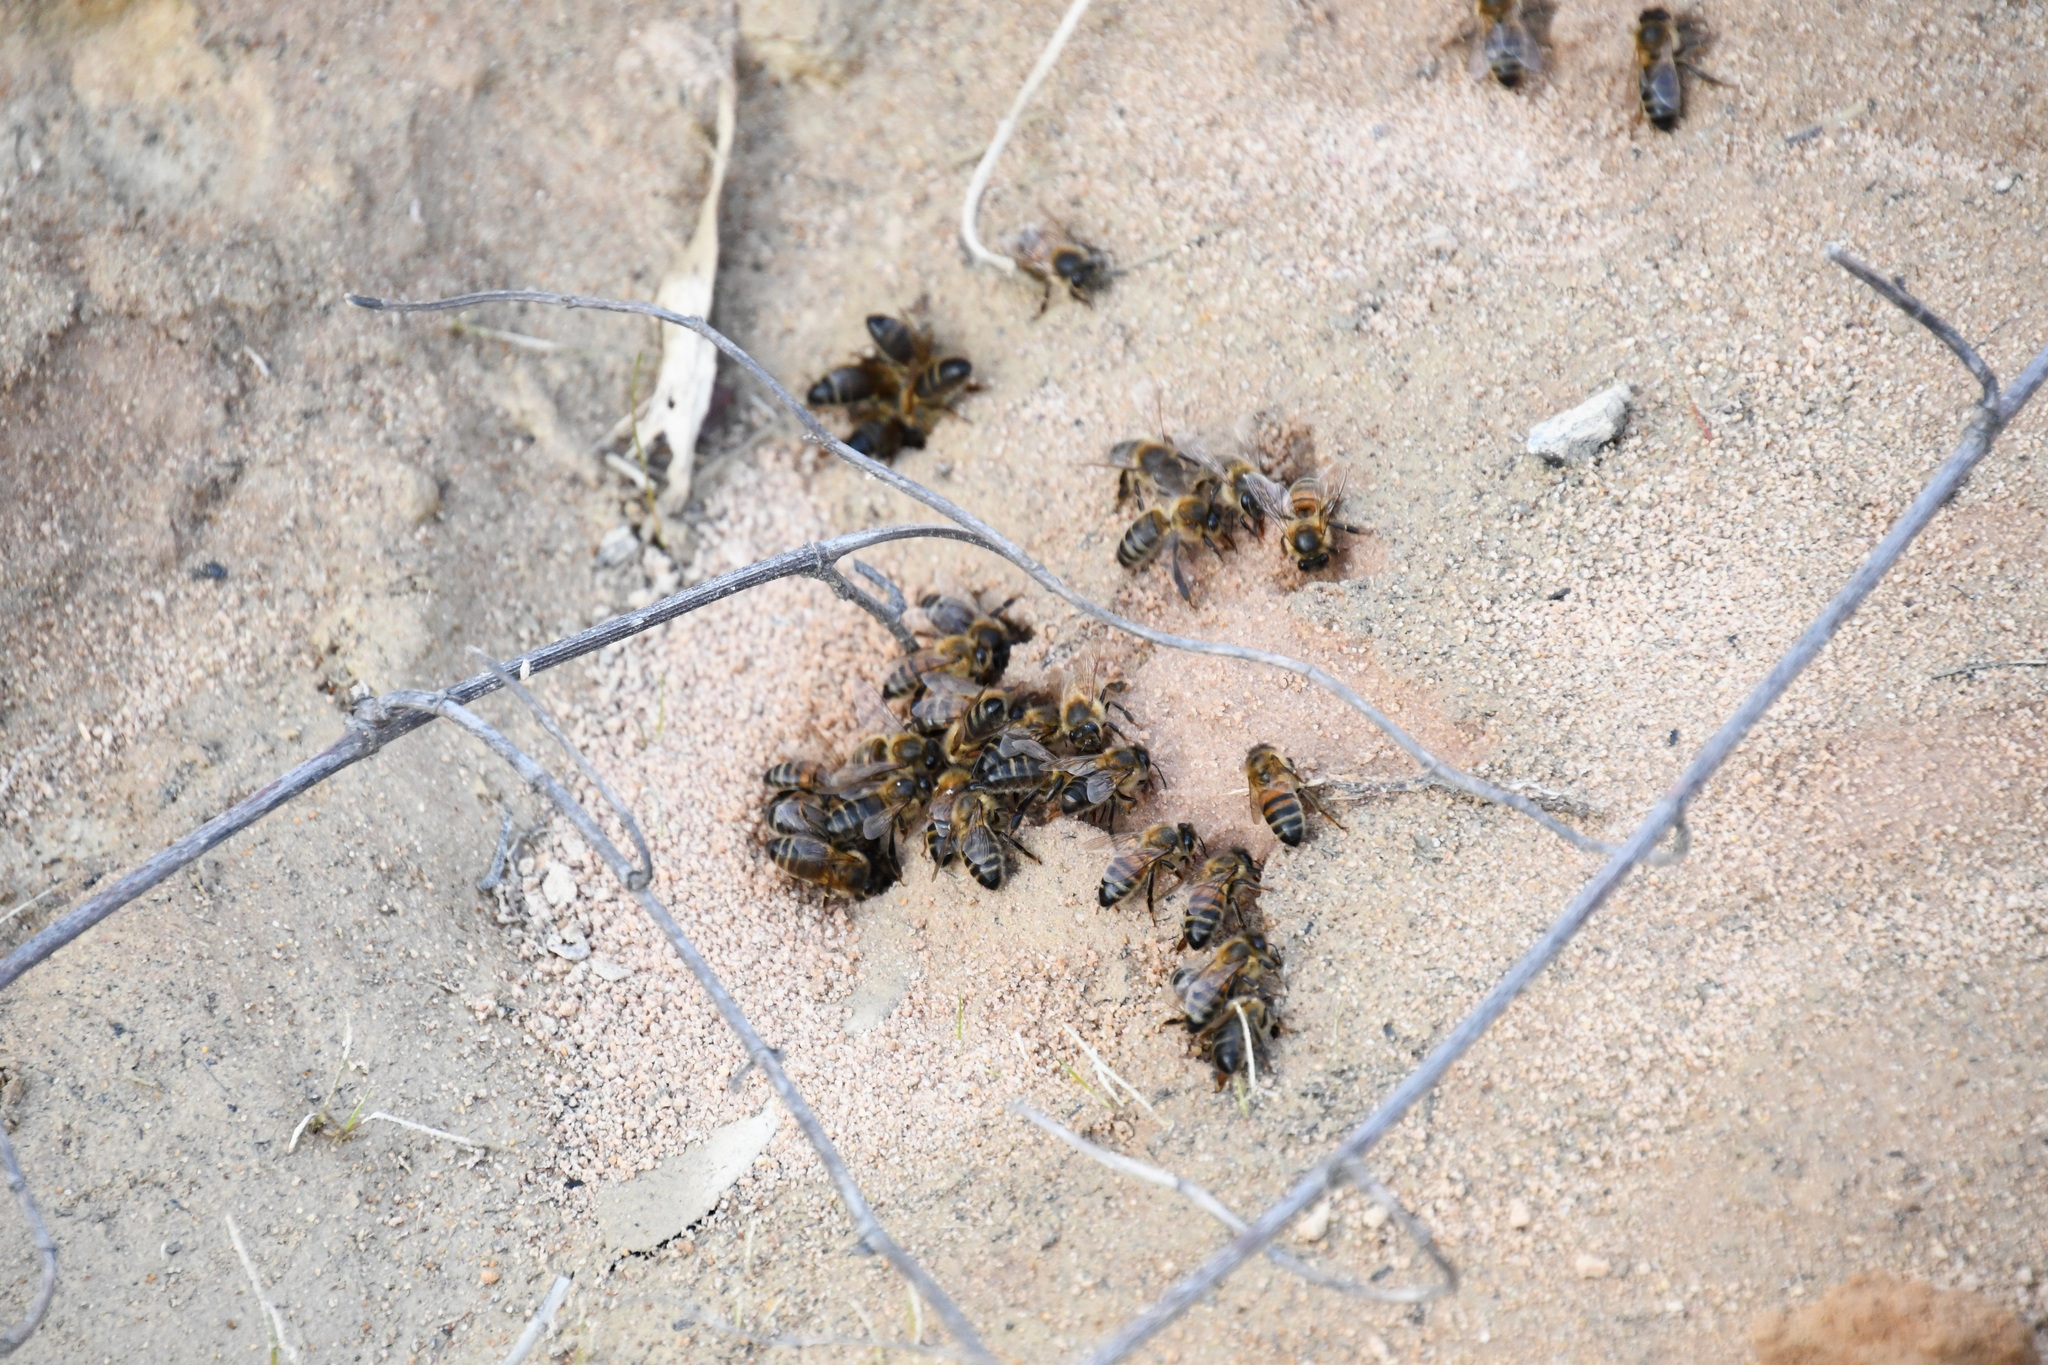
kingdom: Animalia
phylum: Arthropoda
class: Insecta
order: Hymenoptera
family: Apidae
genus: Apis
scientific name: Apis mellifera
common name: Honey bee
